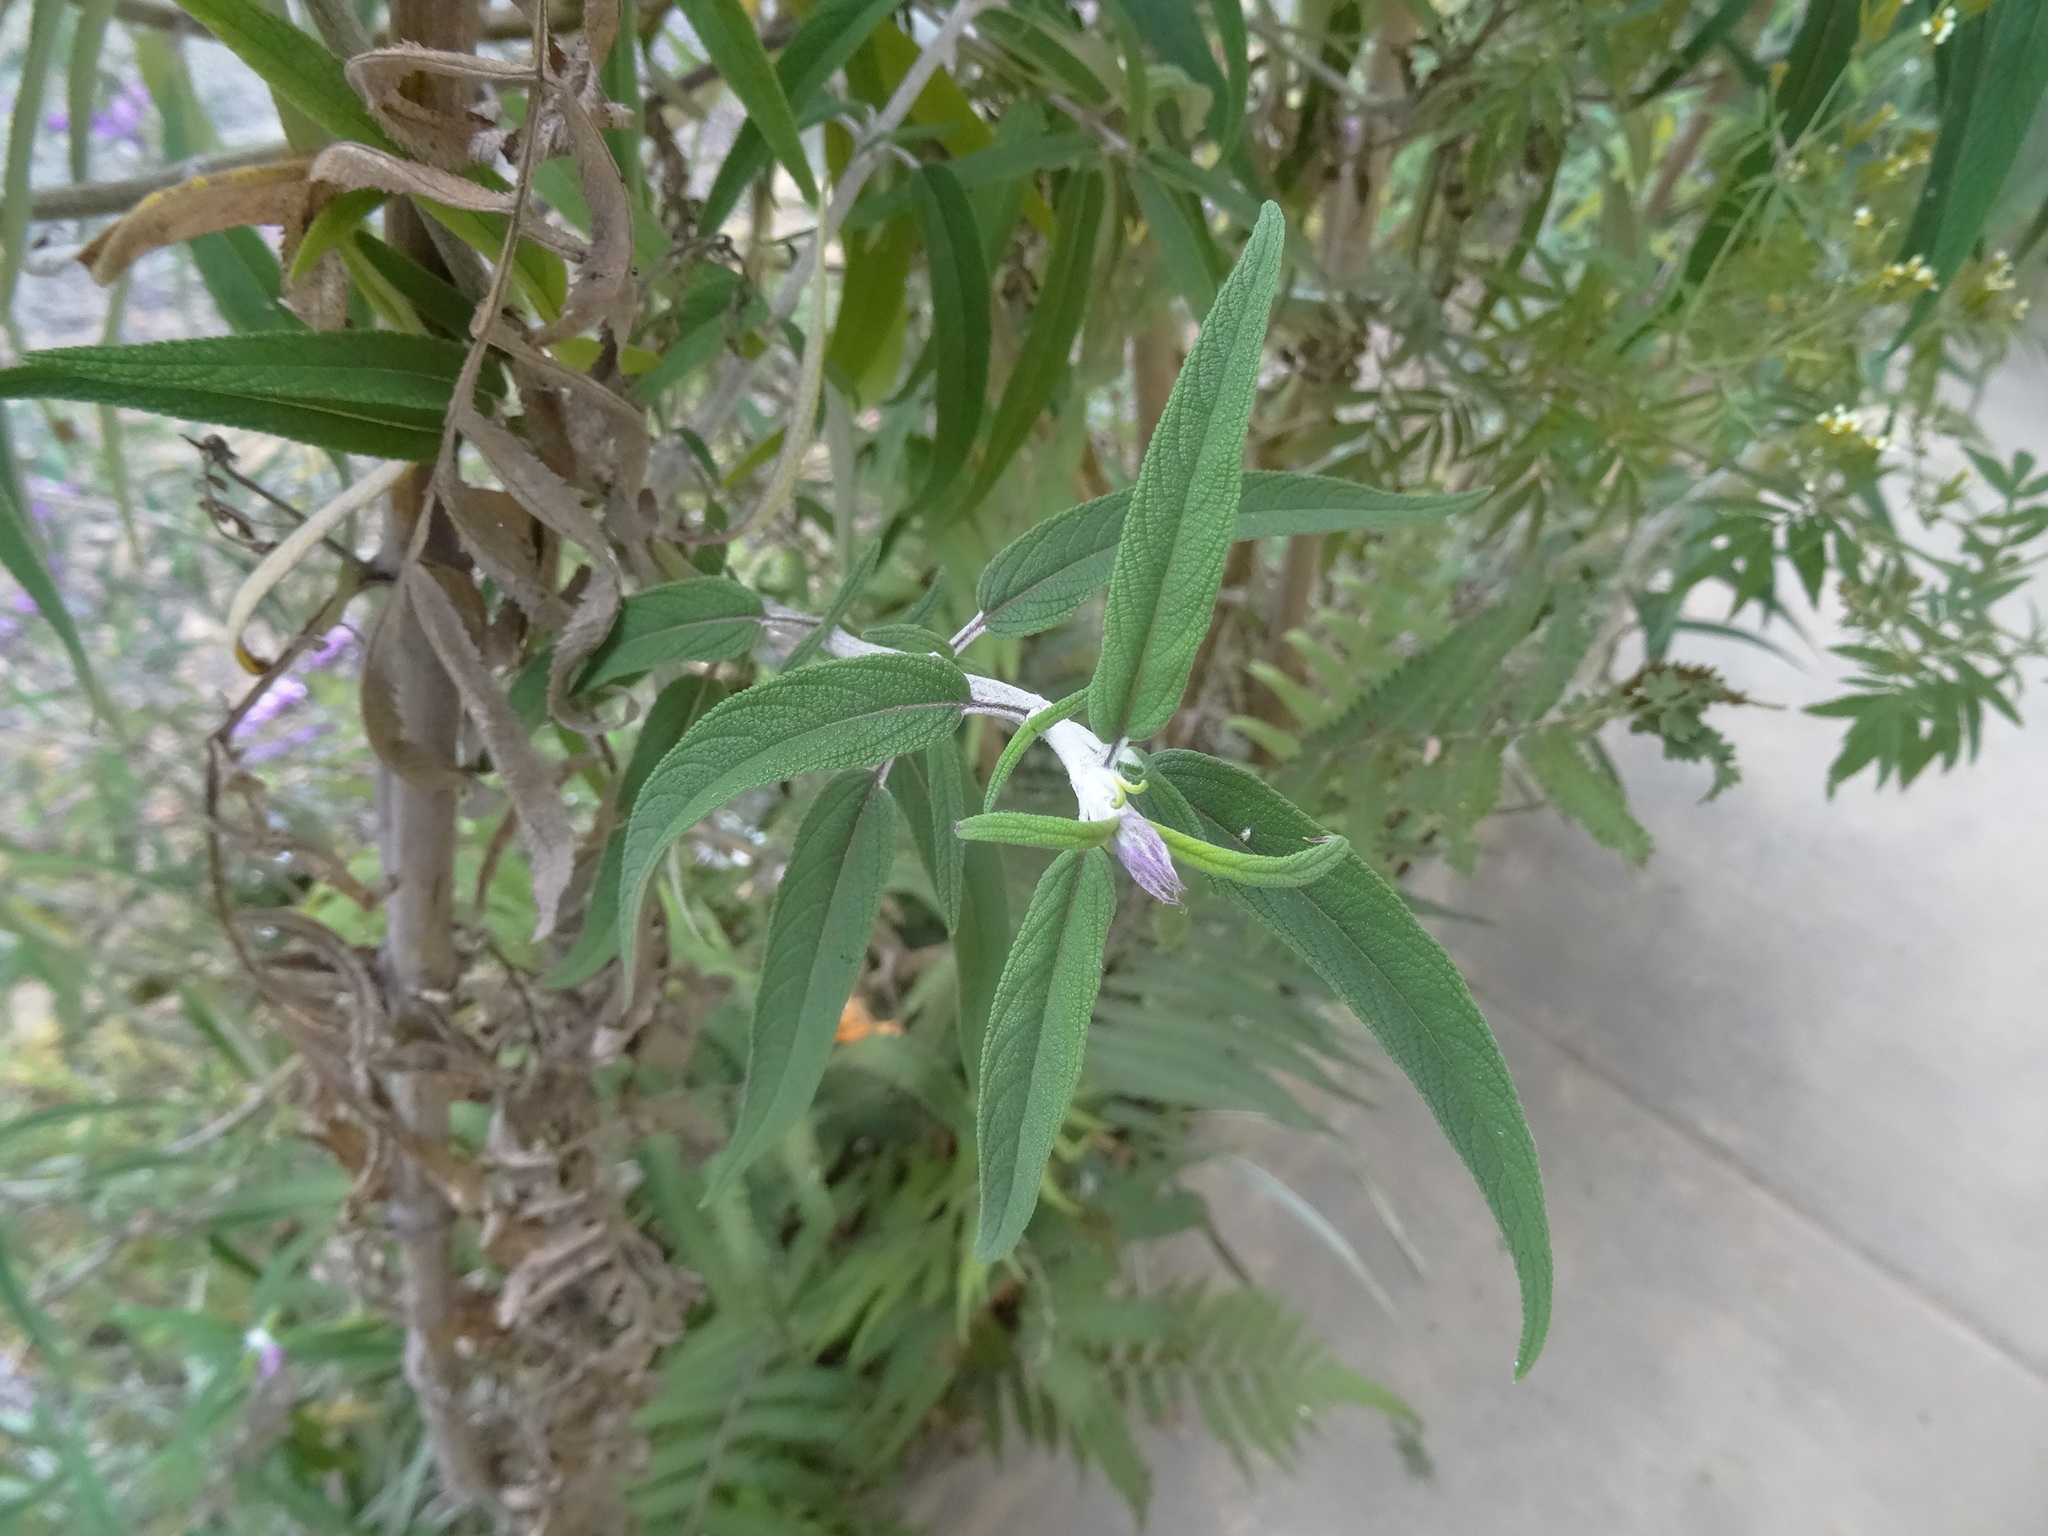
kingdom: Plantae
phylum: Tracheophyta
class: Magnoliopsida
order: Lamiales
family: Lamiaceae
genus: Salvia
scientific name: Salvia leucantha
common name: Mexican bush sage
